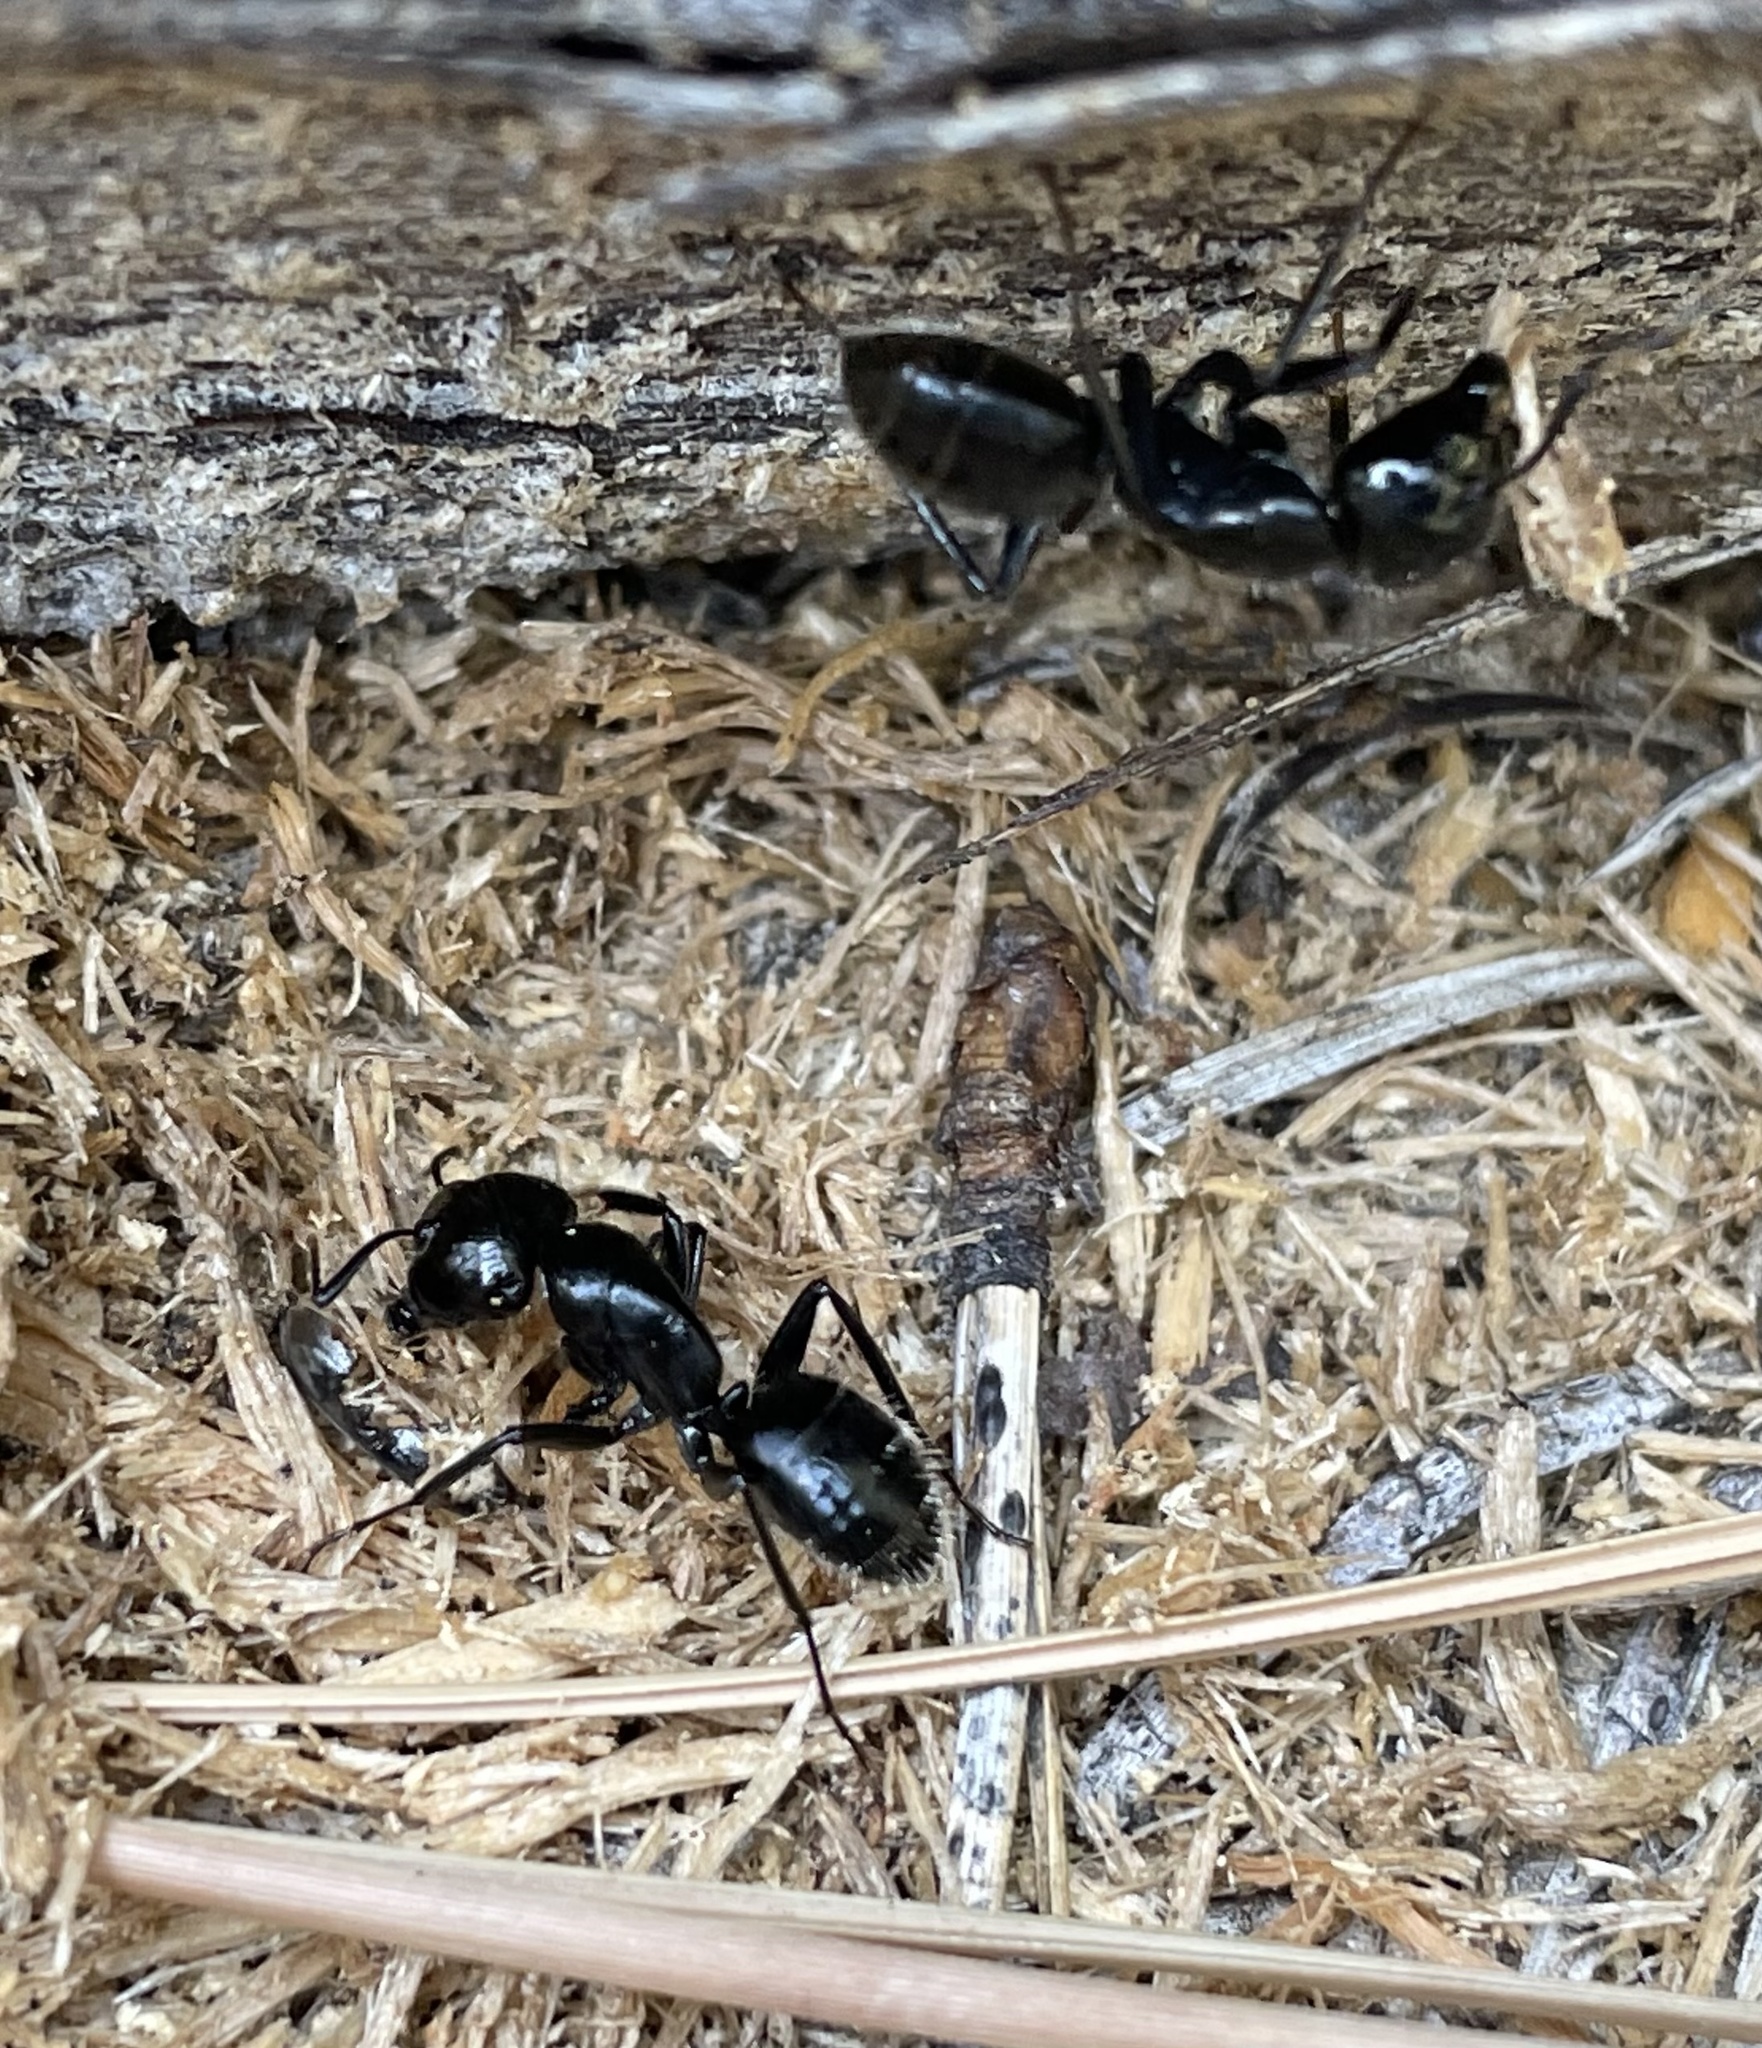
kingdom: Animalia
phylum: Arthropoda
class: Insecta
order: Hymenoptera
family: Formicidae
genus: Camponotus
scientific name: Camponotus
